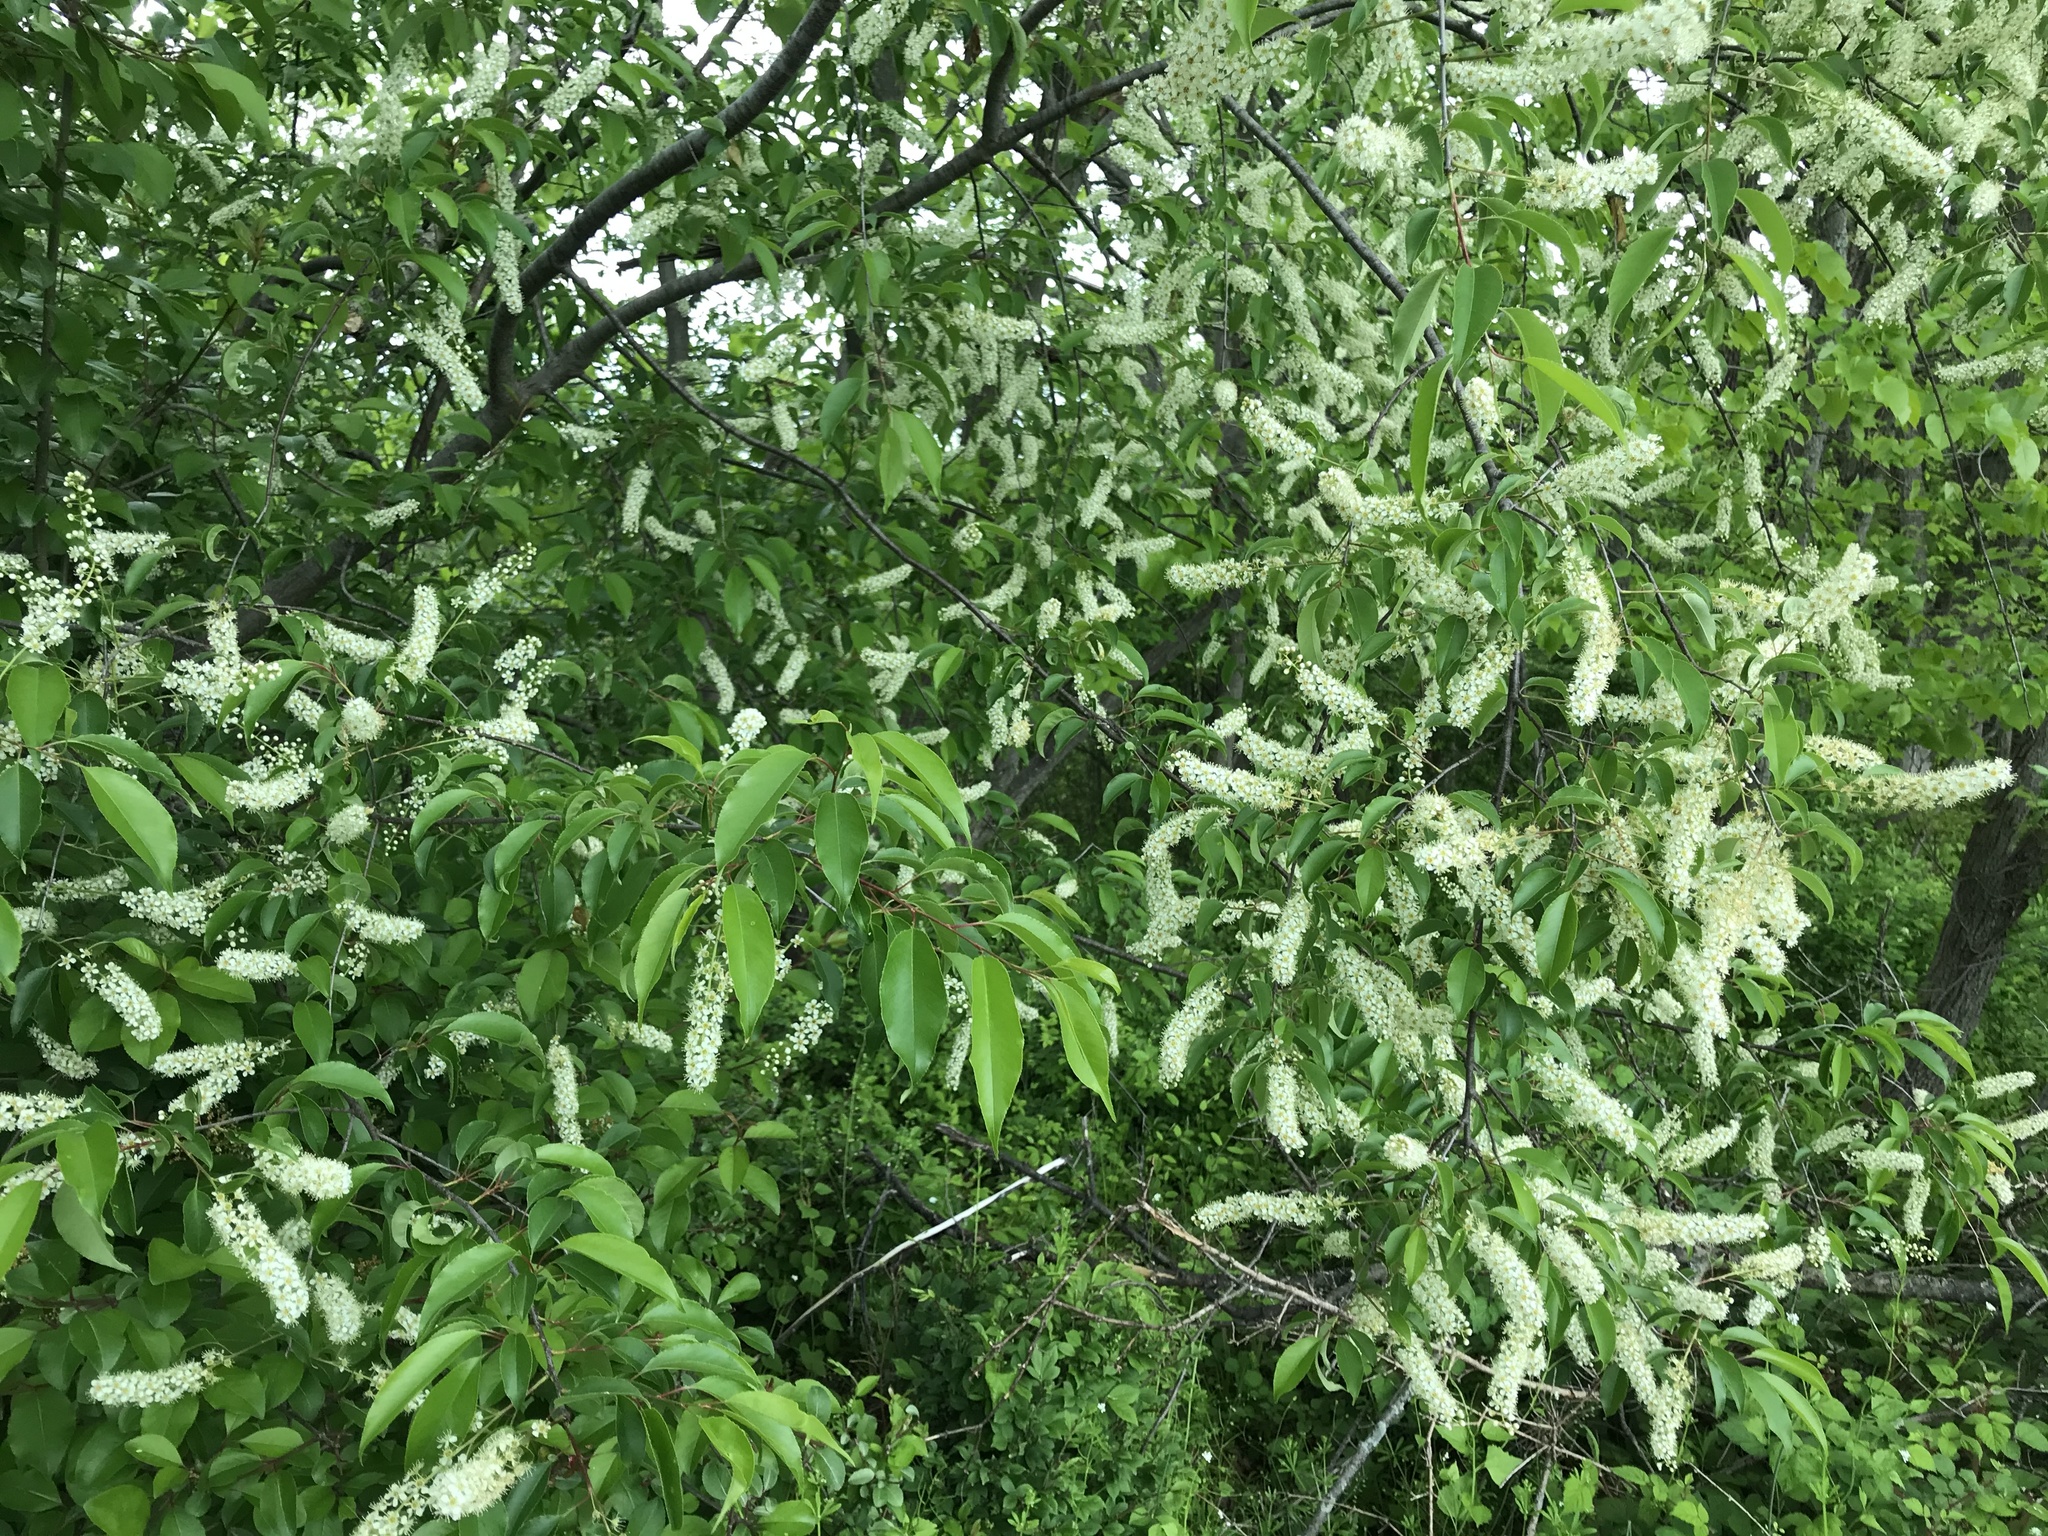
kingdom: Plantae
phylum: Tracheophyta
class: Magnoliopsida
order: Rosales
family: Rosaceae
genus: Prunus
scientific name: Prunus virginiana
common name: Chokecherry
